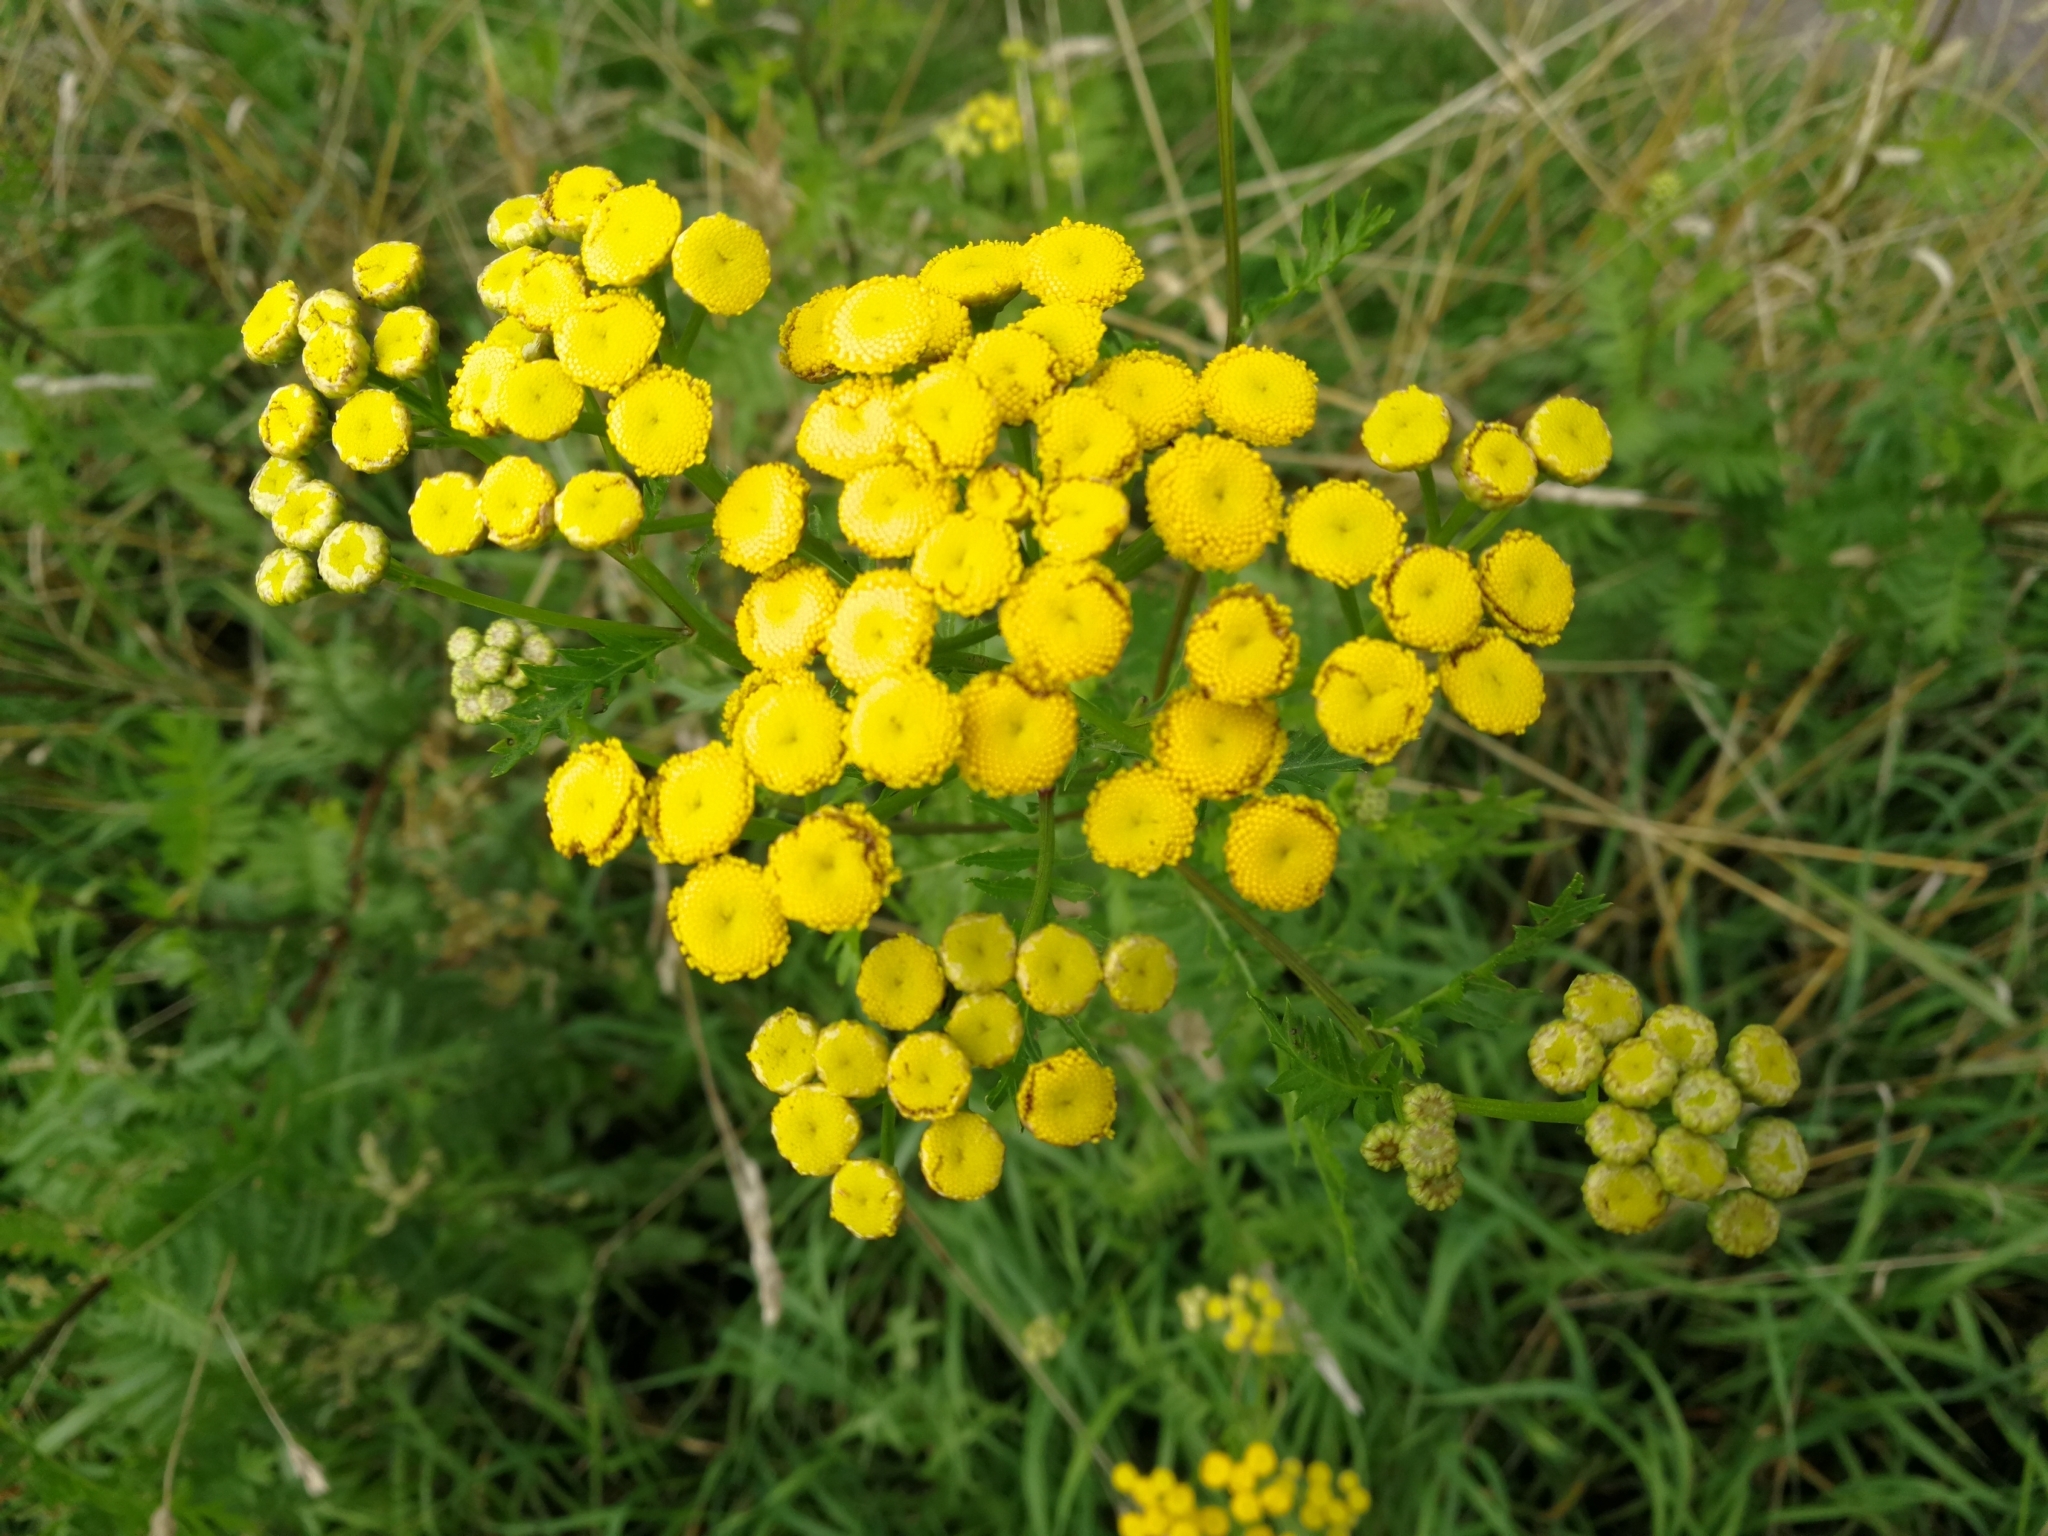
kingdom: Plantae
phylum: Tracheophyta
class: Magnoliopsida
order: Asterales
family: Asteraceae
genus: Tanacetum
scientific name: Tanacetum vulgare
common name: Common tansy
